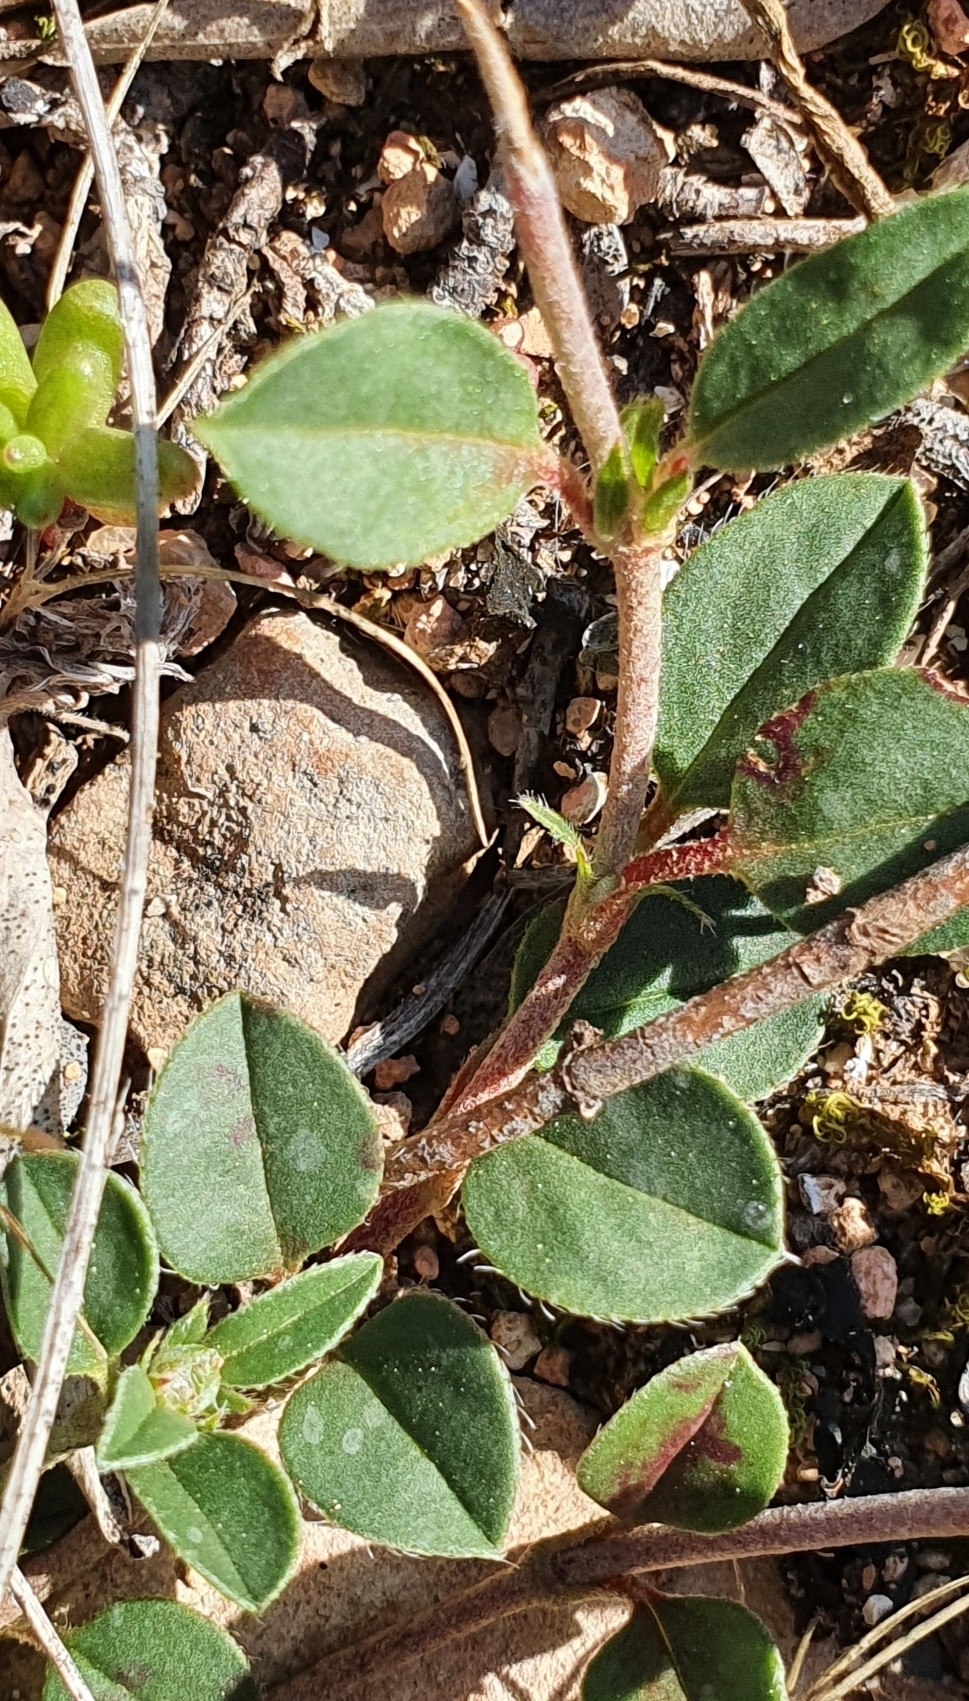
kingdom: Plantae
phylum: Tracheophyta
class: Magnoliopsida
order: Malvales
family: Cistaceae
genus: Helianthemum
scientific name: Helianthemum cinereum
